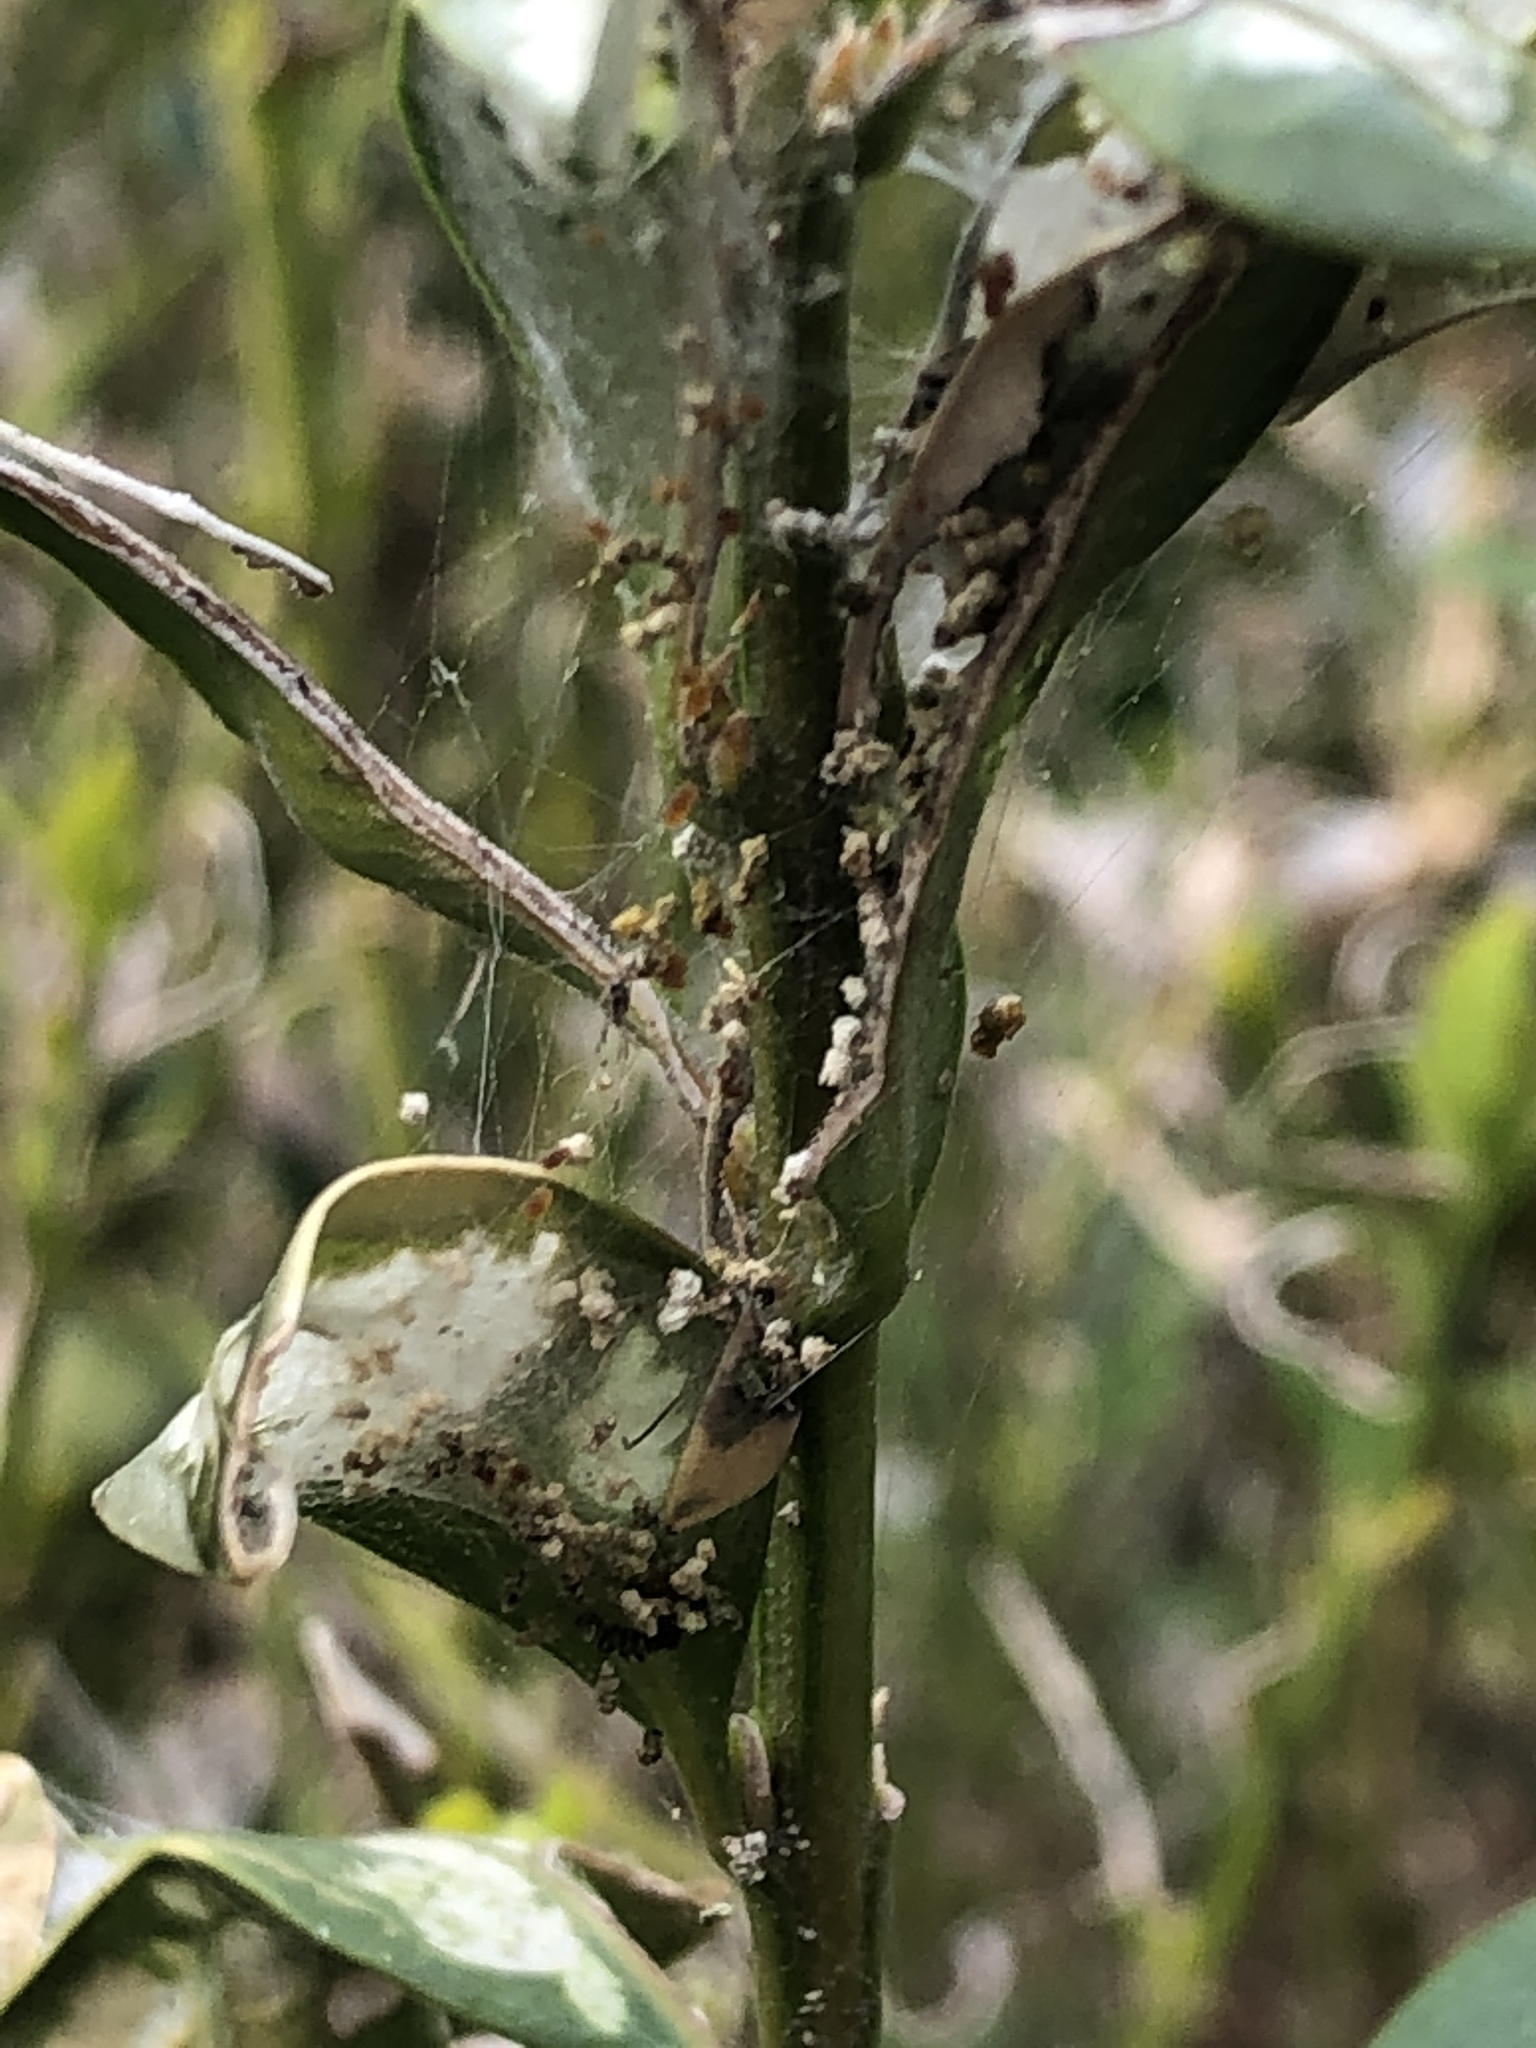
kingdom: Animalia
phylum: Arthropoda
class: Insecta
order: Lepidoptera
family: Crambidae
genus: Cydalima
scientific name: Cydalima perspectalis
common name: Box tree moth
